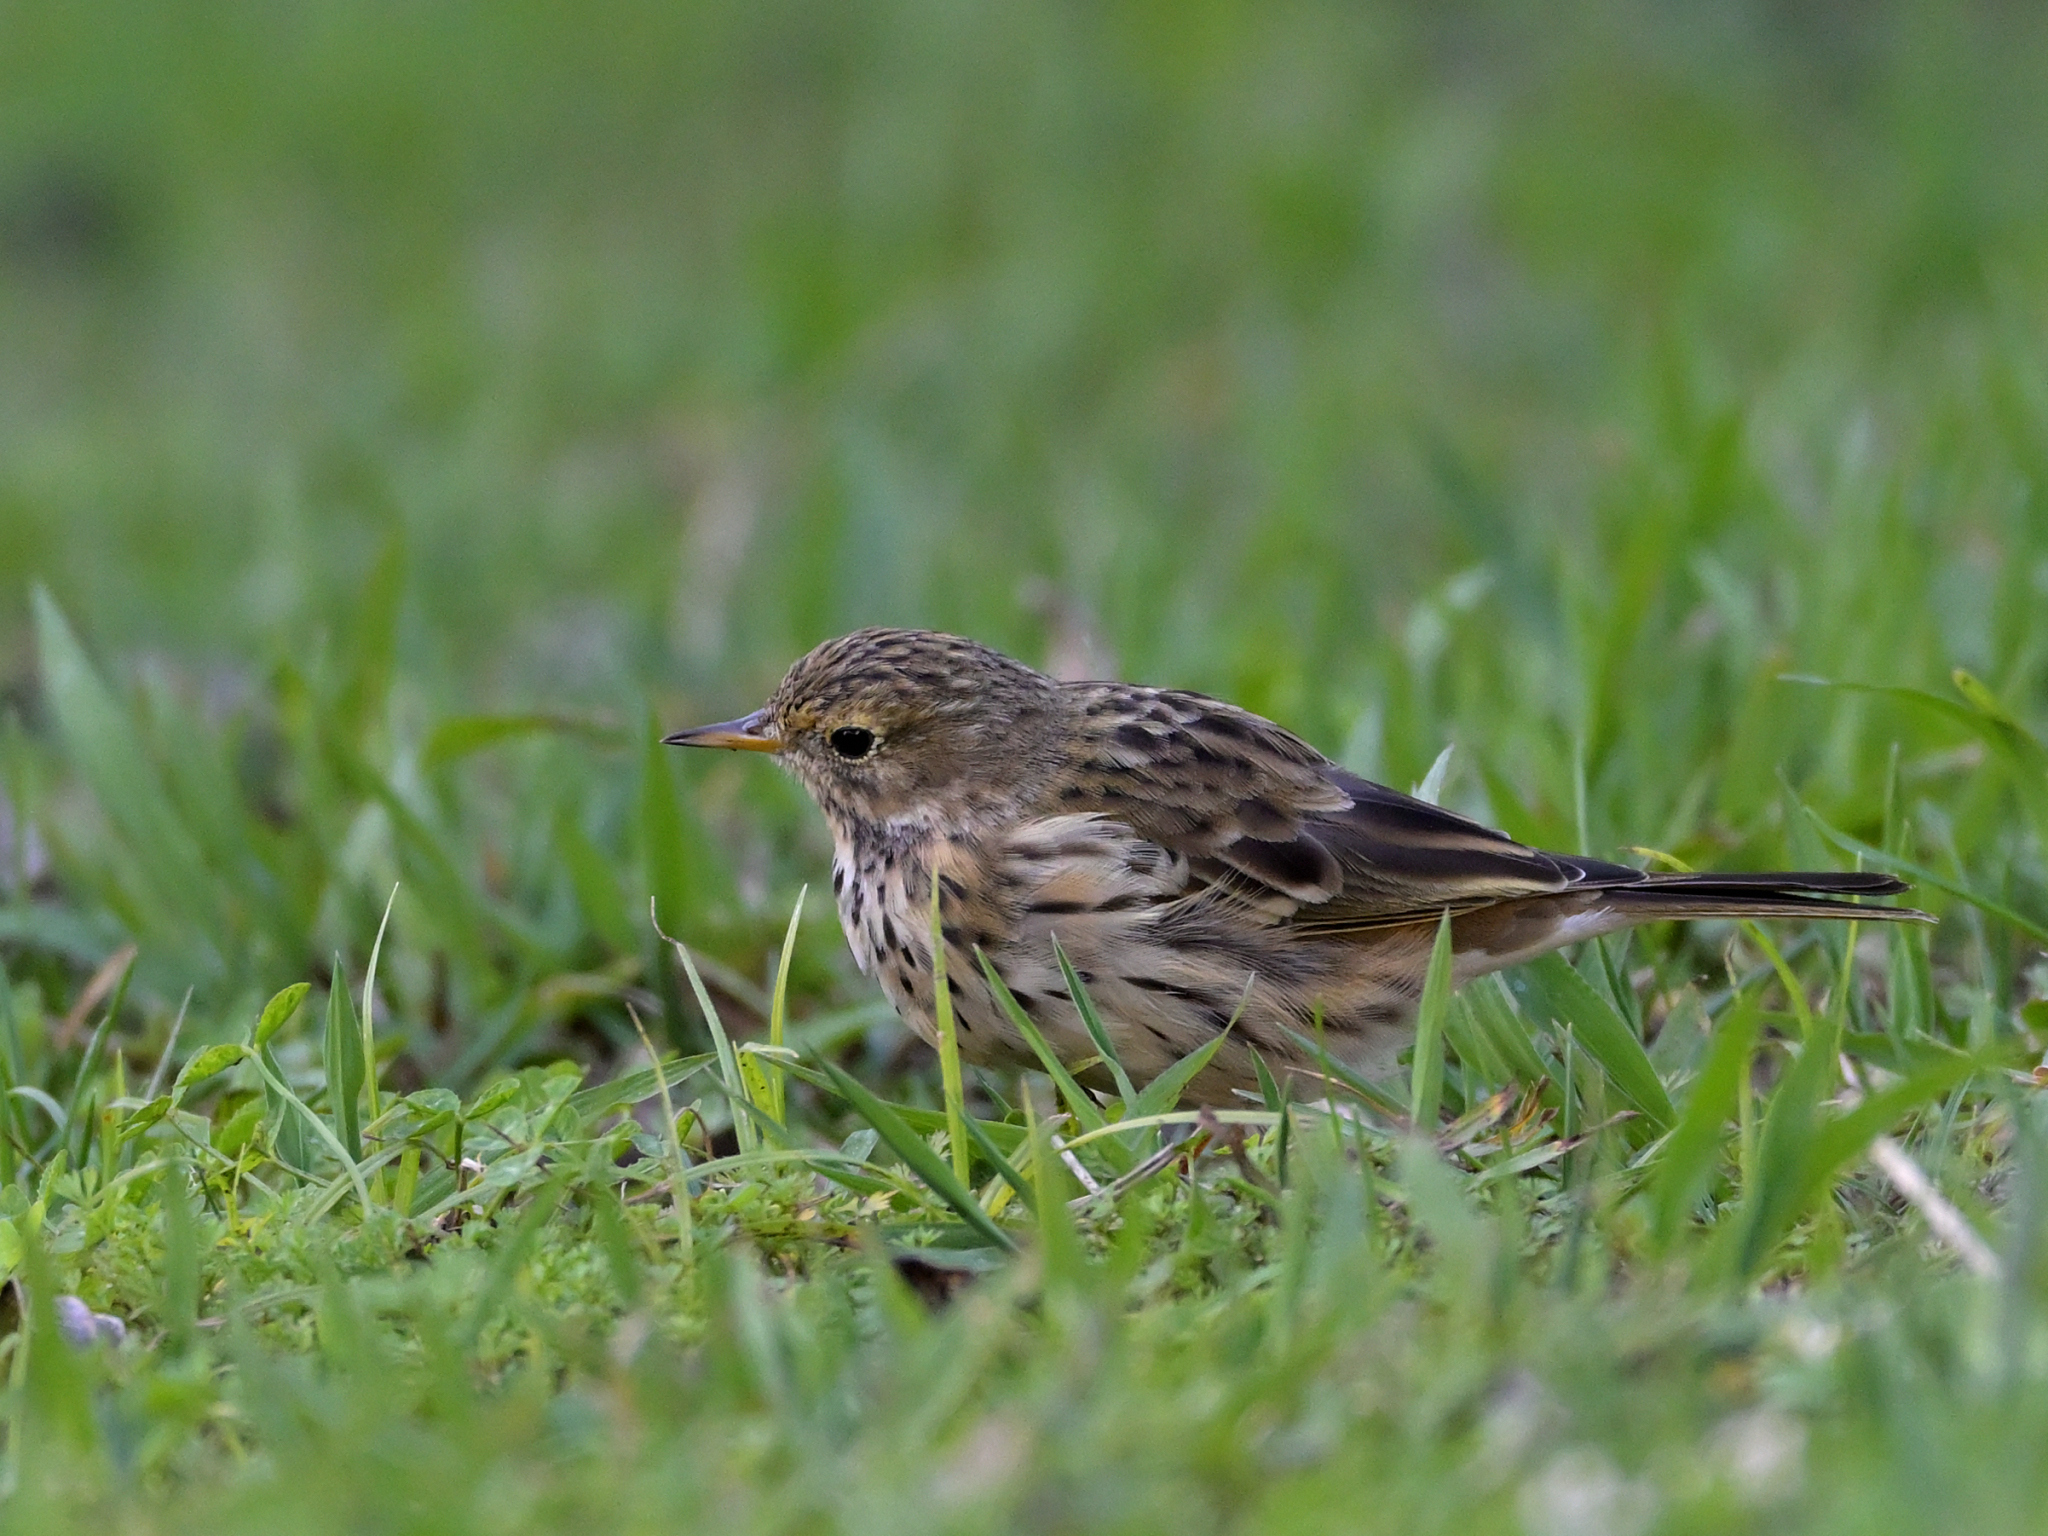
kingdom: Animalia
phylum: Chordata
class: Aves
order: Passeriformes
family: Motacillidae
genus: Anthus
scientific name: Anthus pratensis
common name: Meadow pipit
